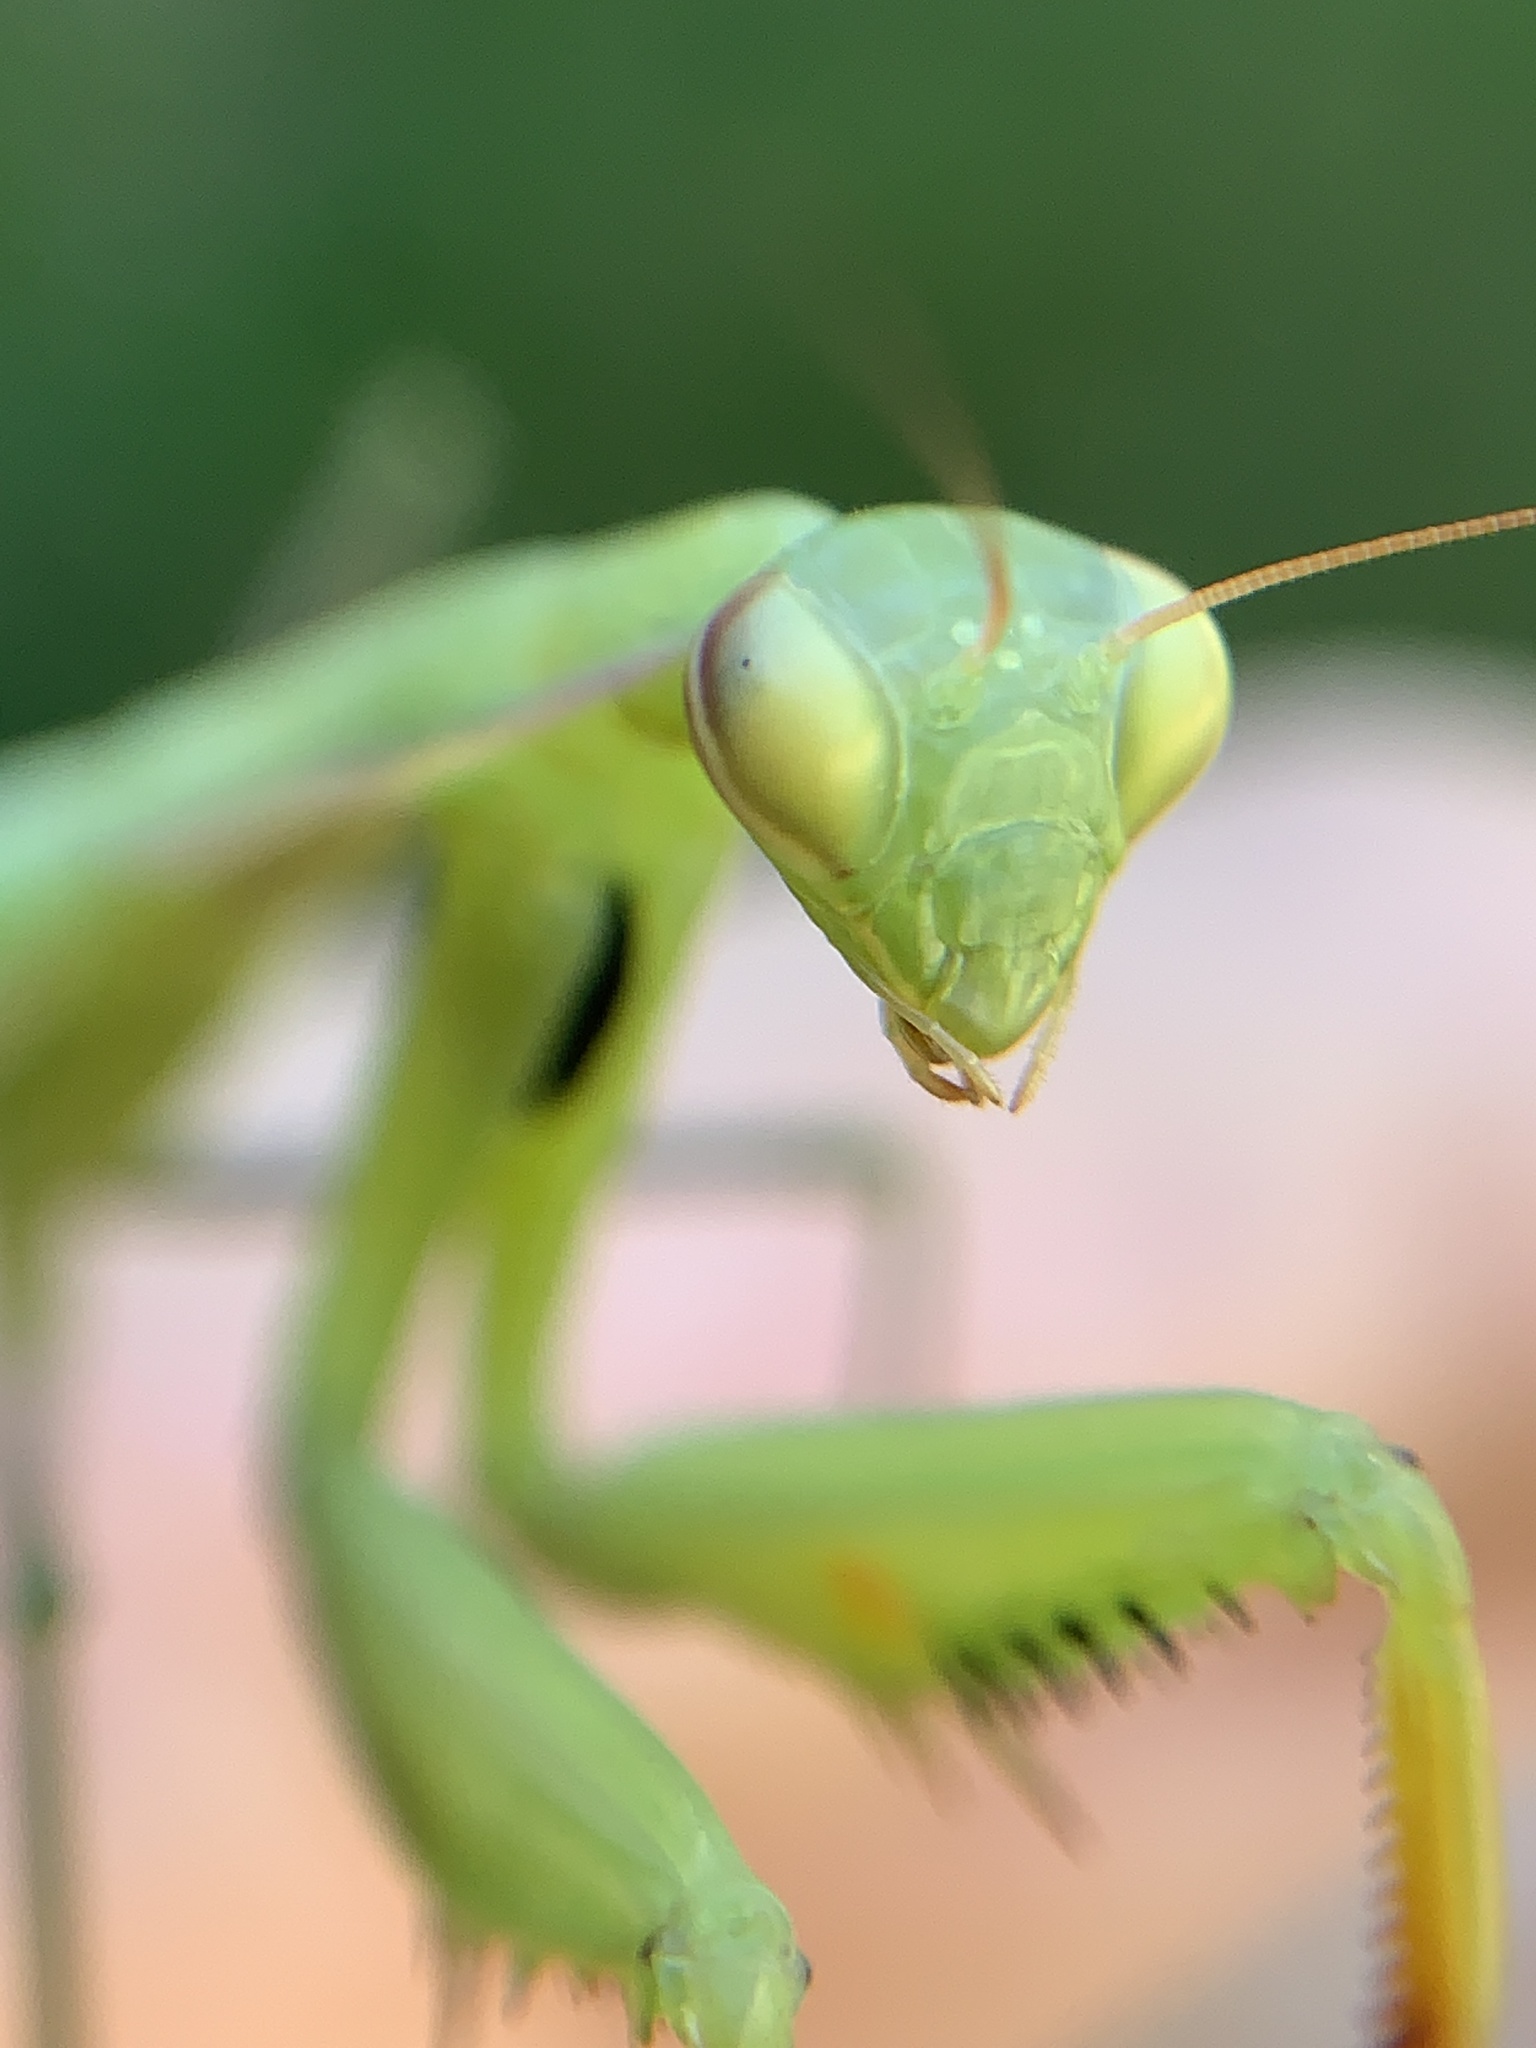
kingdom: Animalia
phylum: Arthropoda
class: Insecta
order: Mantodea
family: Mantidae
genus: Mantis
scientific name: Mantis religiosa
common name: Praying mantis
